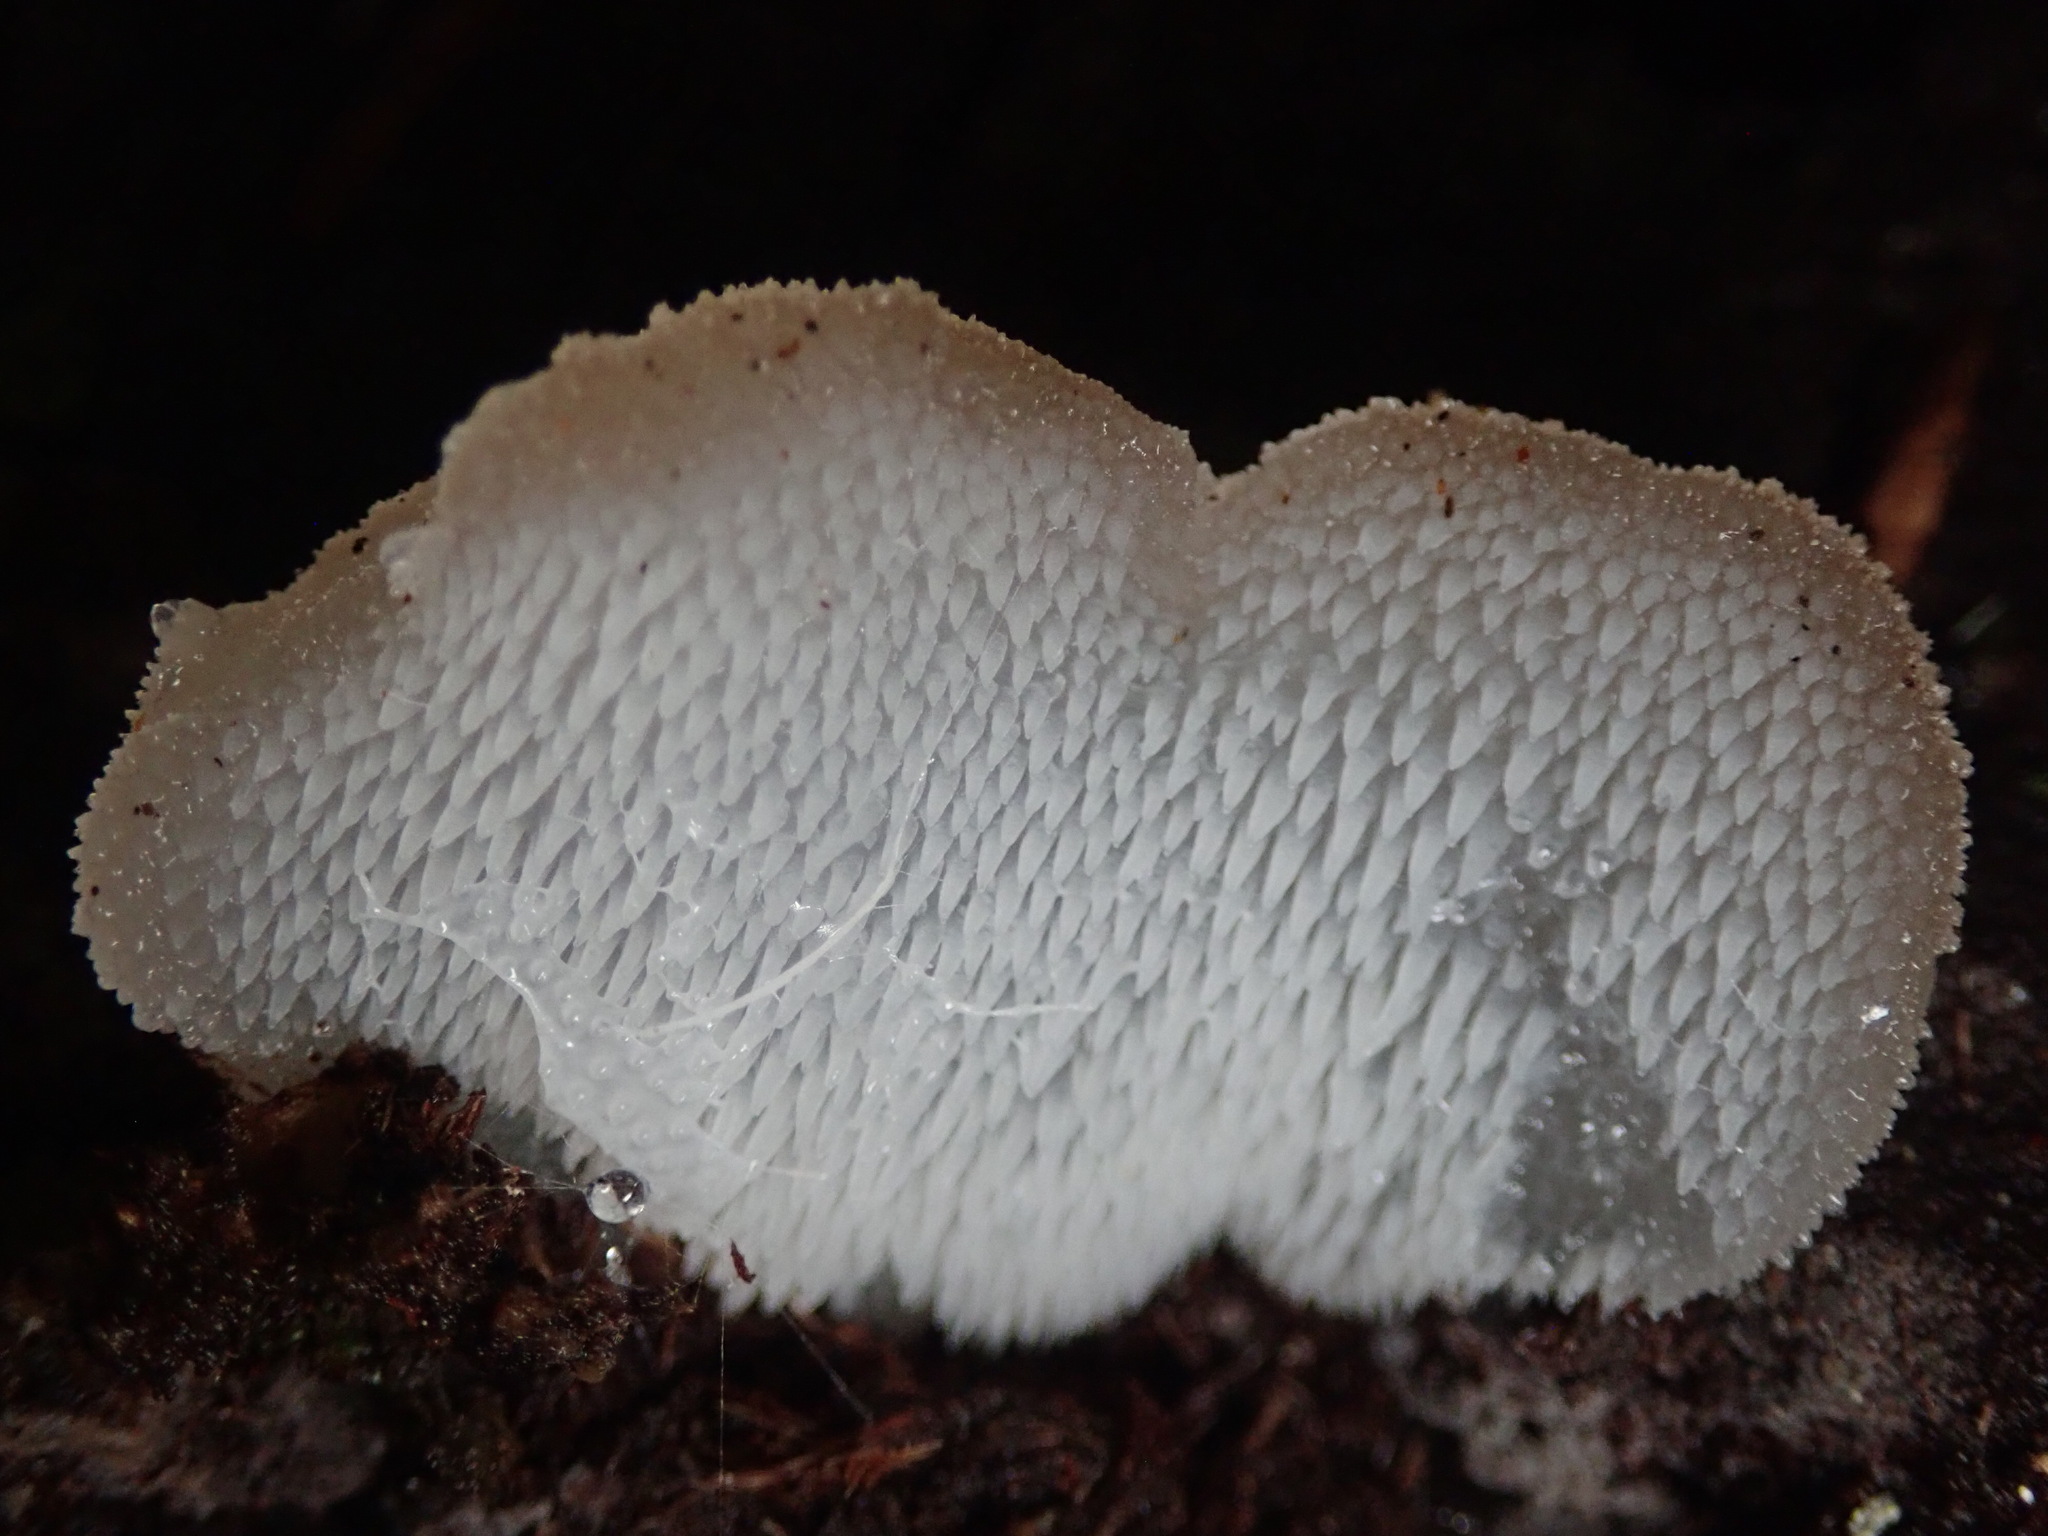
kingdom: Fungi
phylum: Basidiomycota
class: Agaricomycetes
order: Auriculariales
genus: Pseudohydnum
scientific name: Pseudohydnum gelatinosum
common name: Jelly tongue
